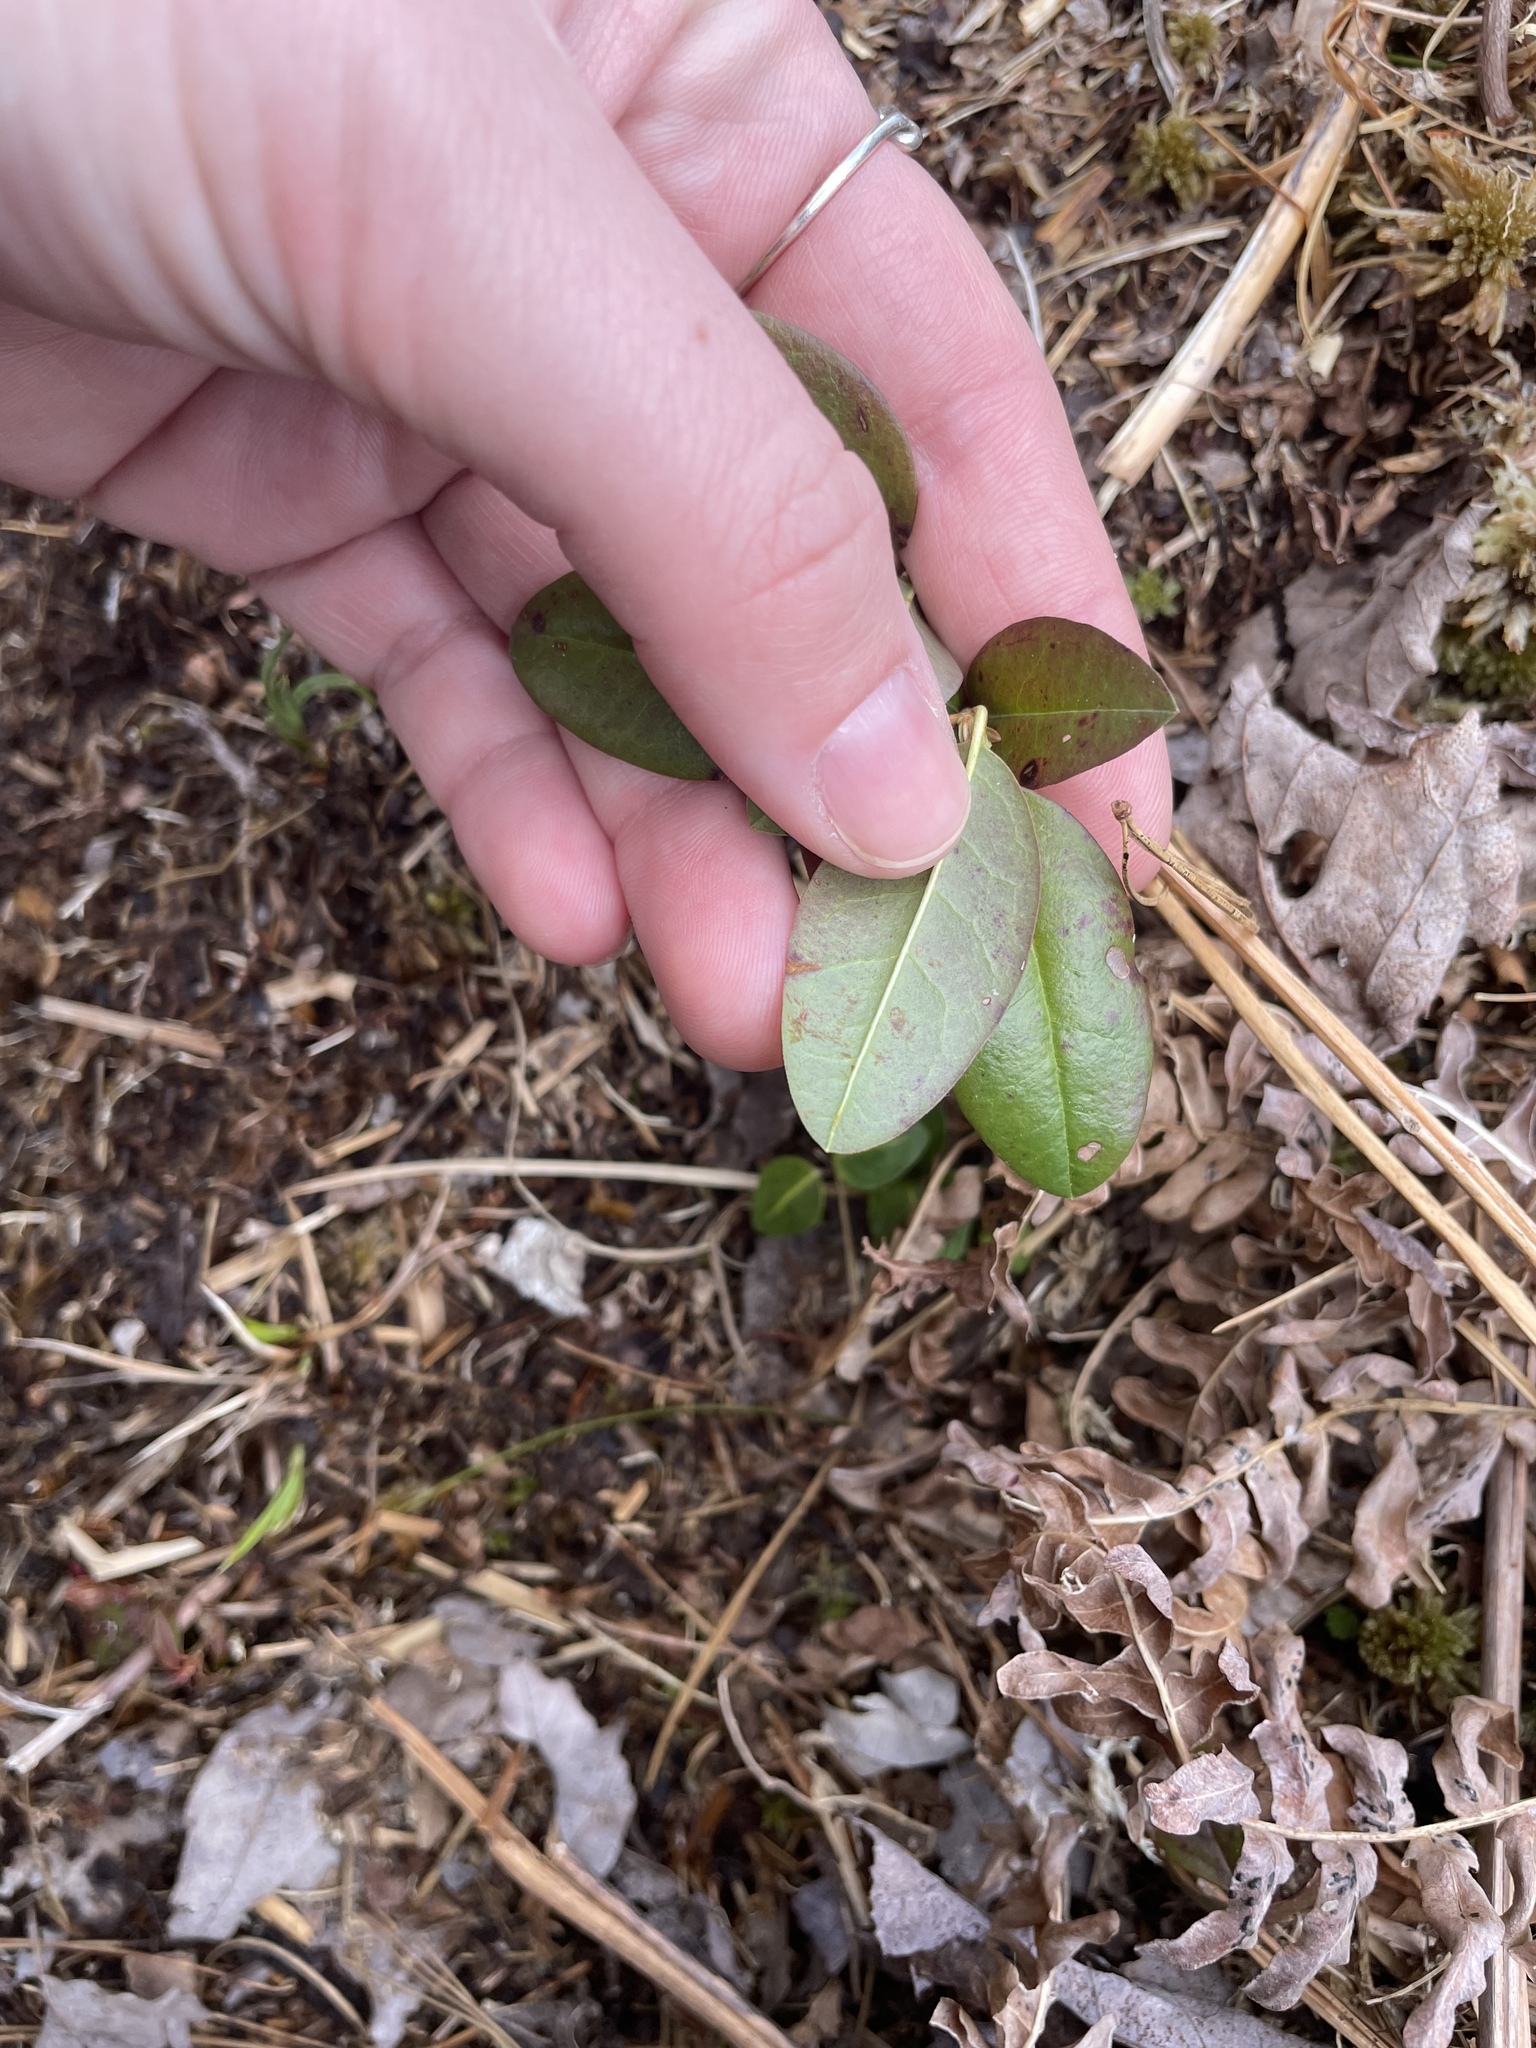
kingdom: Plantae
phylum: Tracheophyta
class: Magnoliopsida
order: Ericales
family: Ericaceae
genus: Kalmia
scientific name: Kalmia angustifolia
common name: Sheep-laurel
